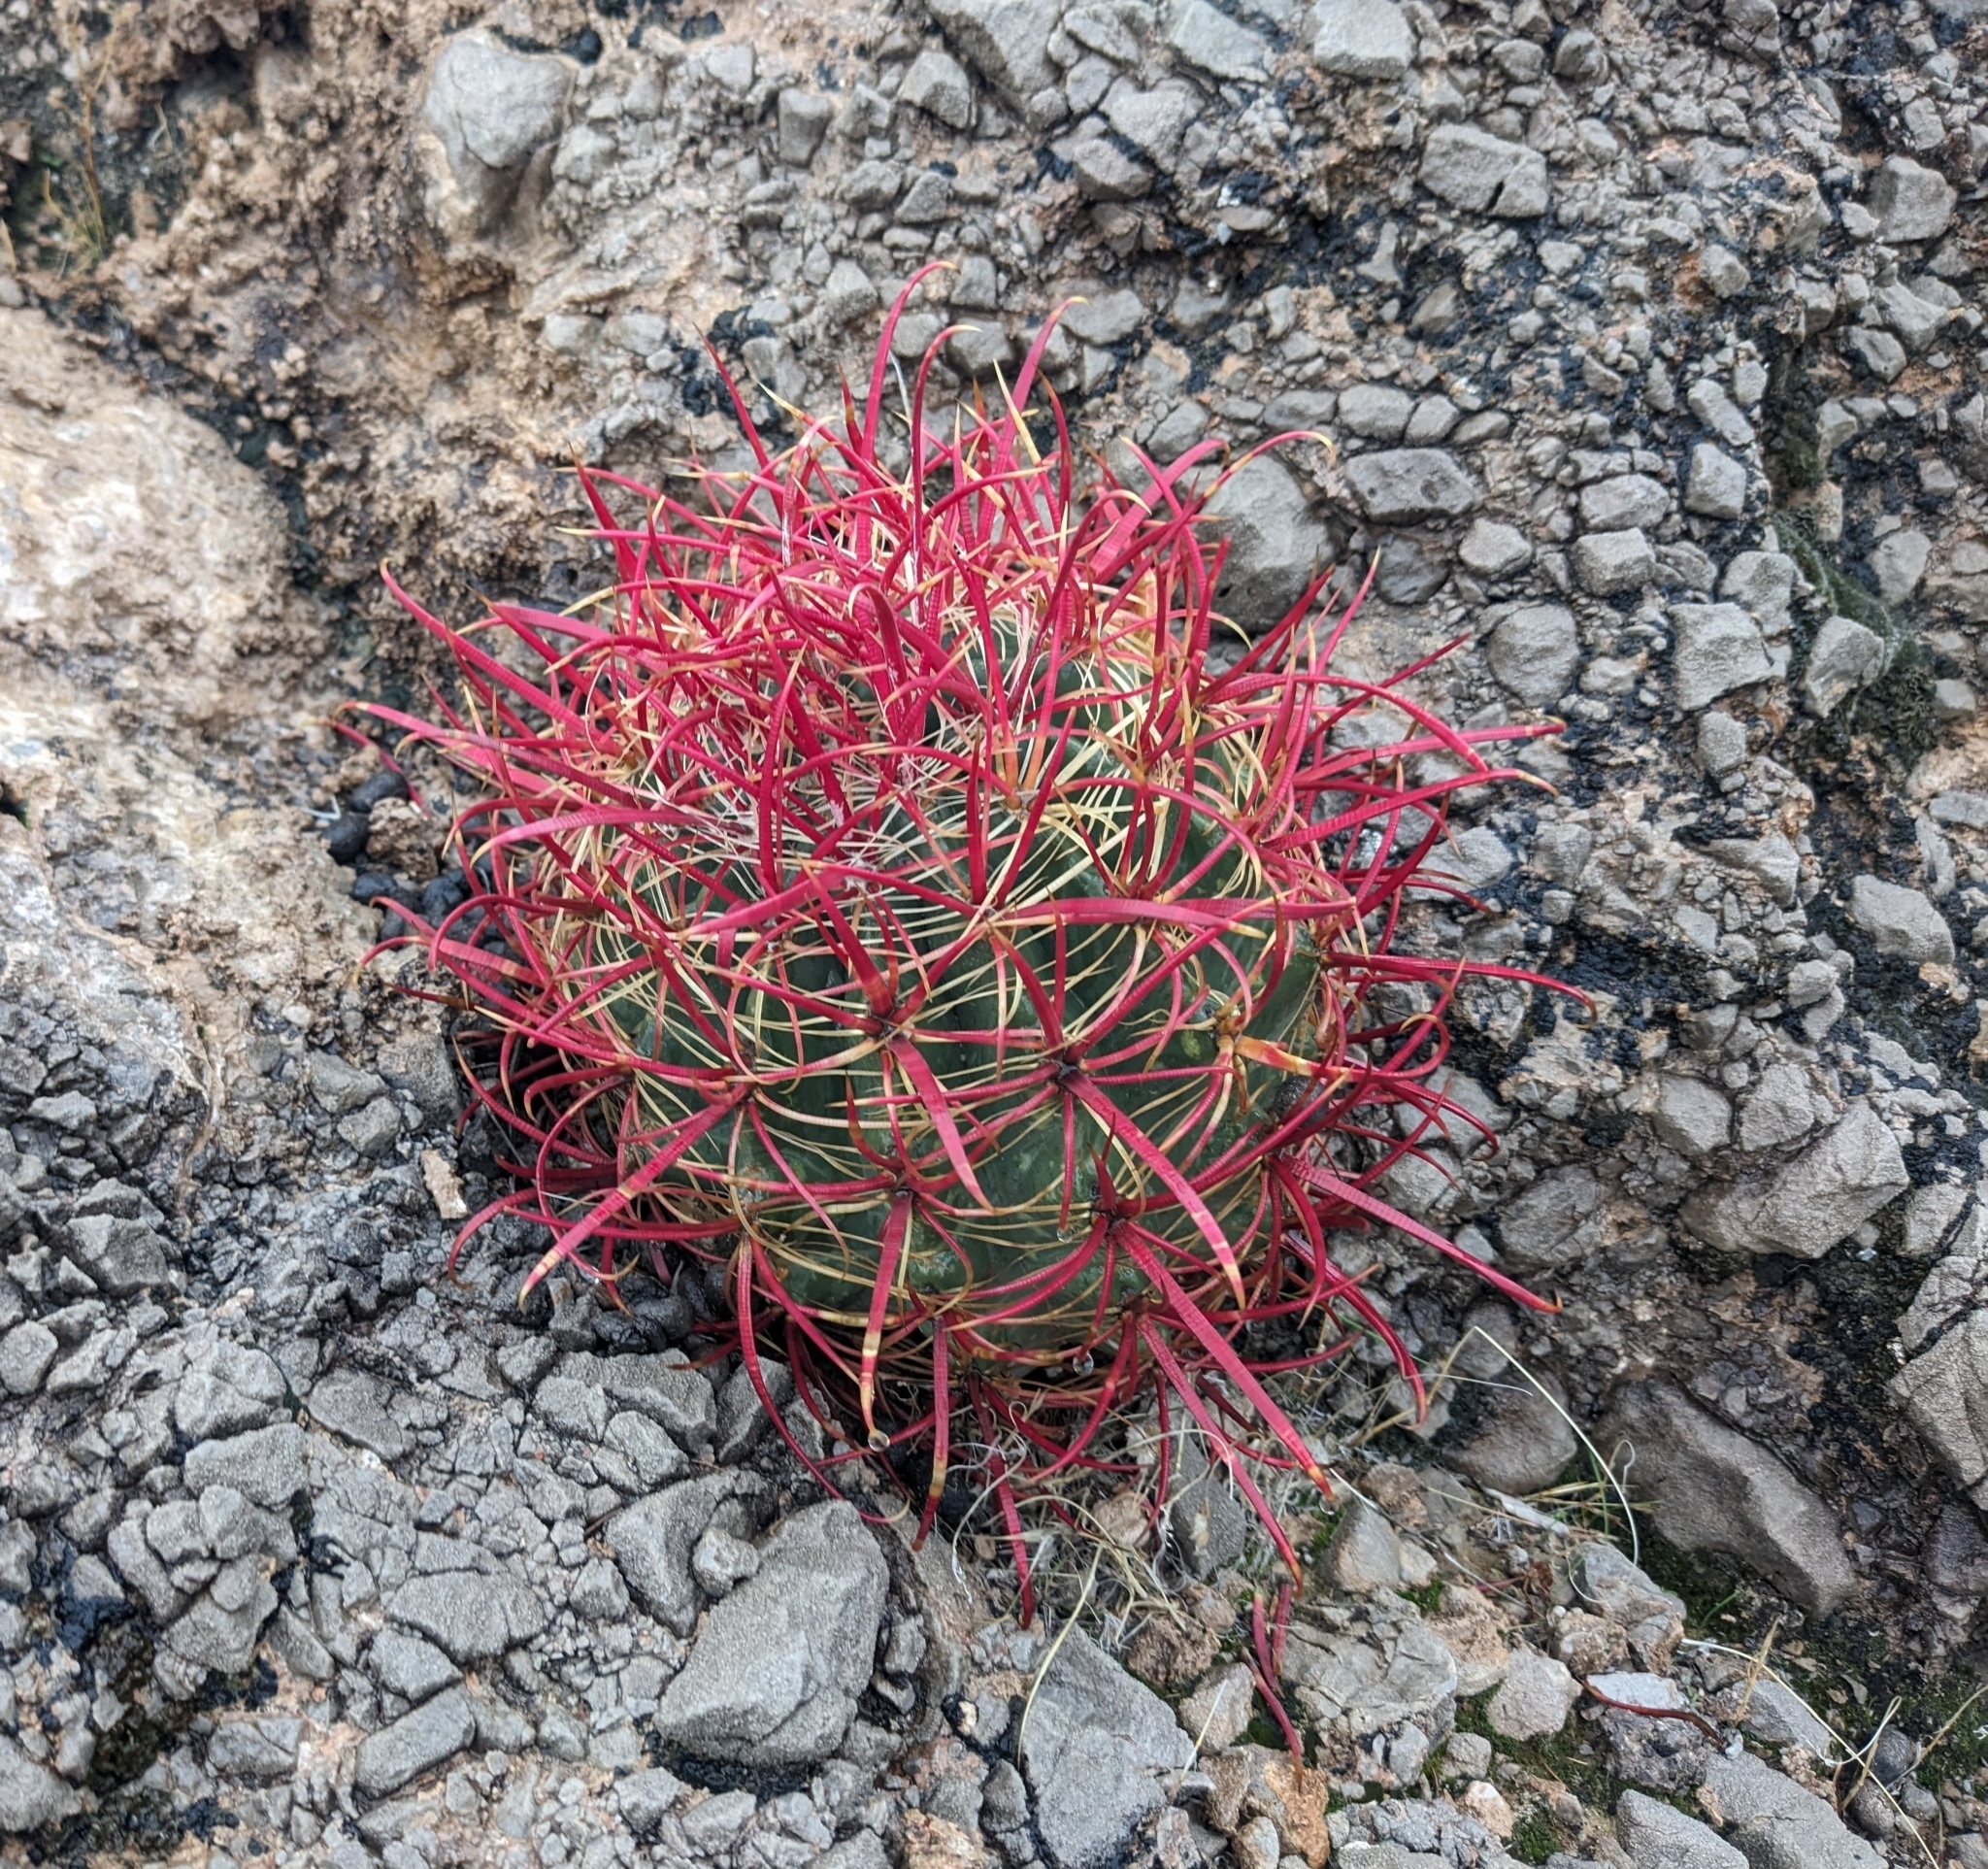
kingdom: Plantae
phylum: Tracheophyta
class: Magnoliopsida
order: Caryophyllales
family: Cactaceae
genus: Ferocactus
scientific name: Ferocactus cylindraceus
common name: California barrel cactus
